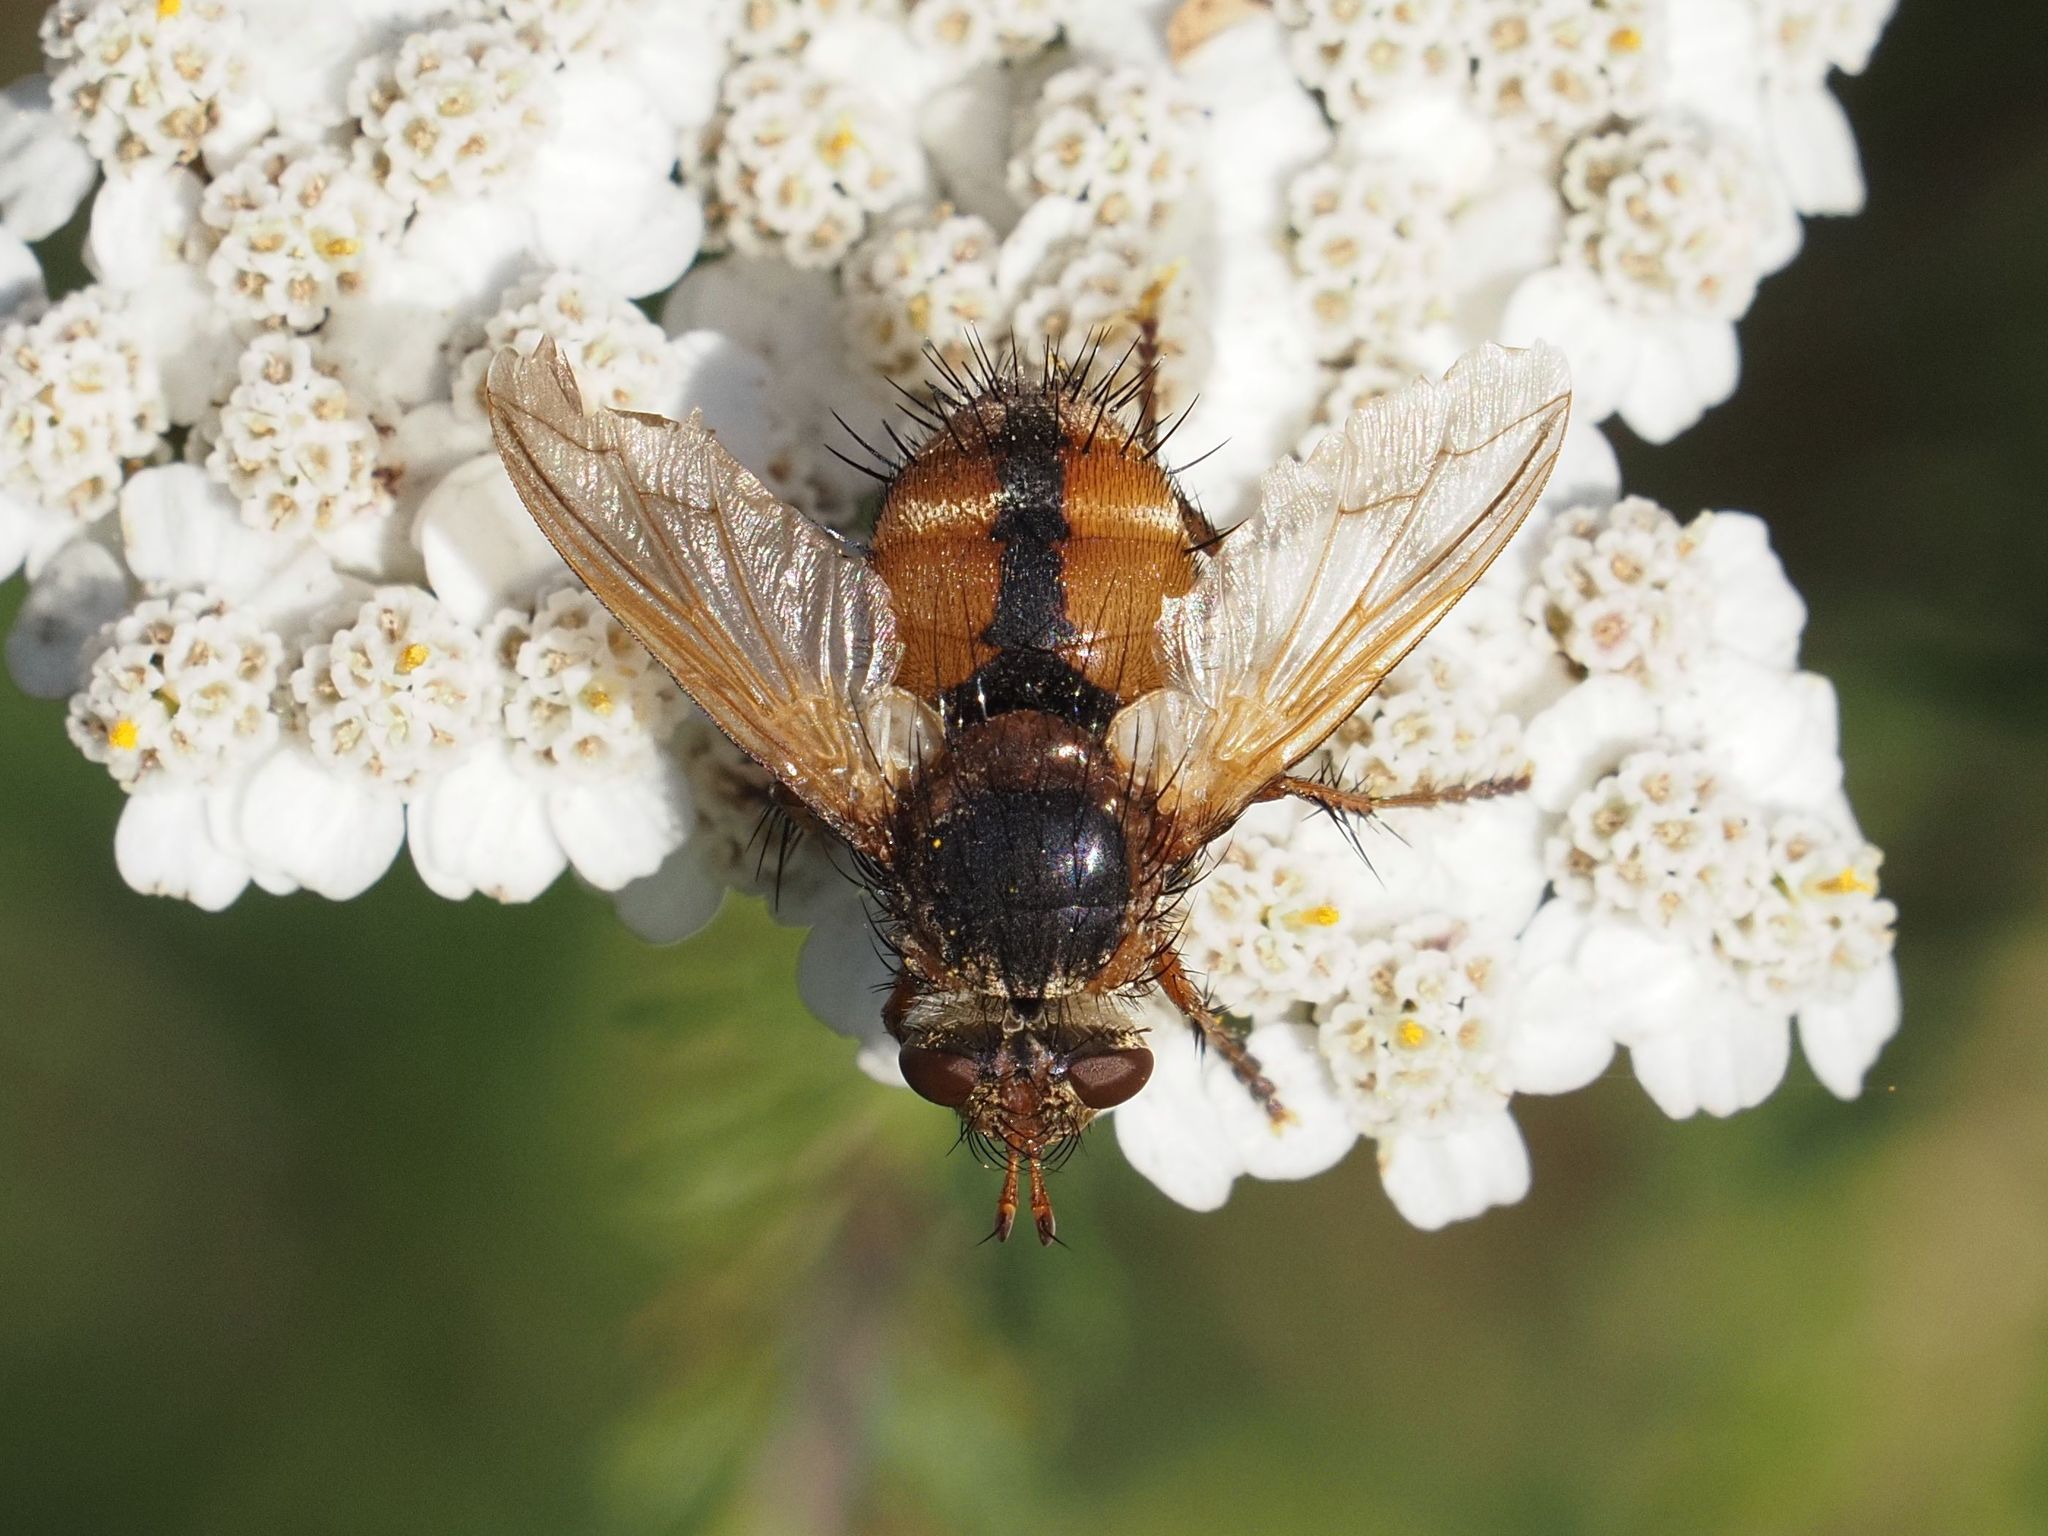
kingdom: Animalia
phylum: Arthropoda
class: Insecta
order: Diptera
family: Tachinidae
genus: Tachina
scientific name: Tachina fera
